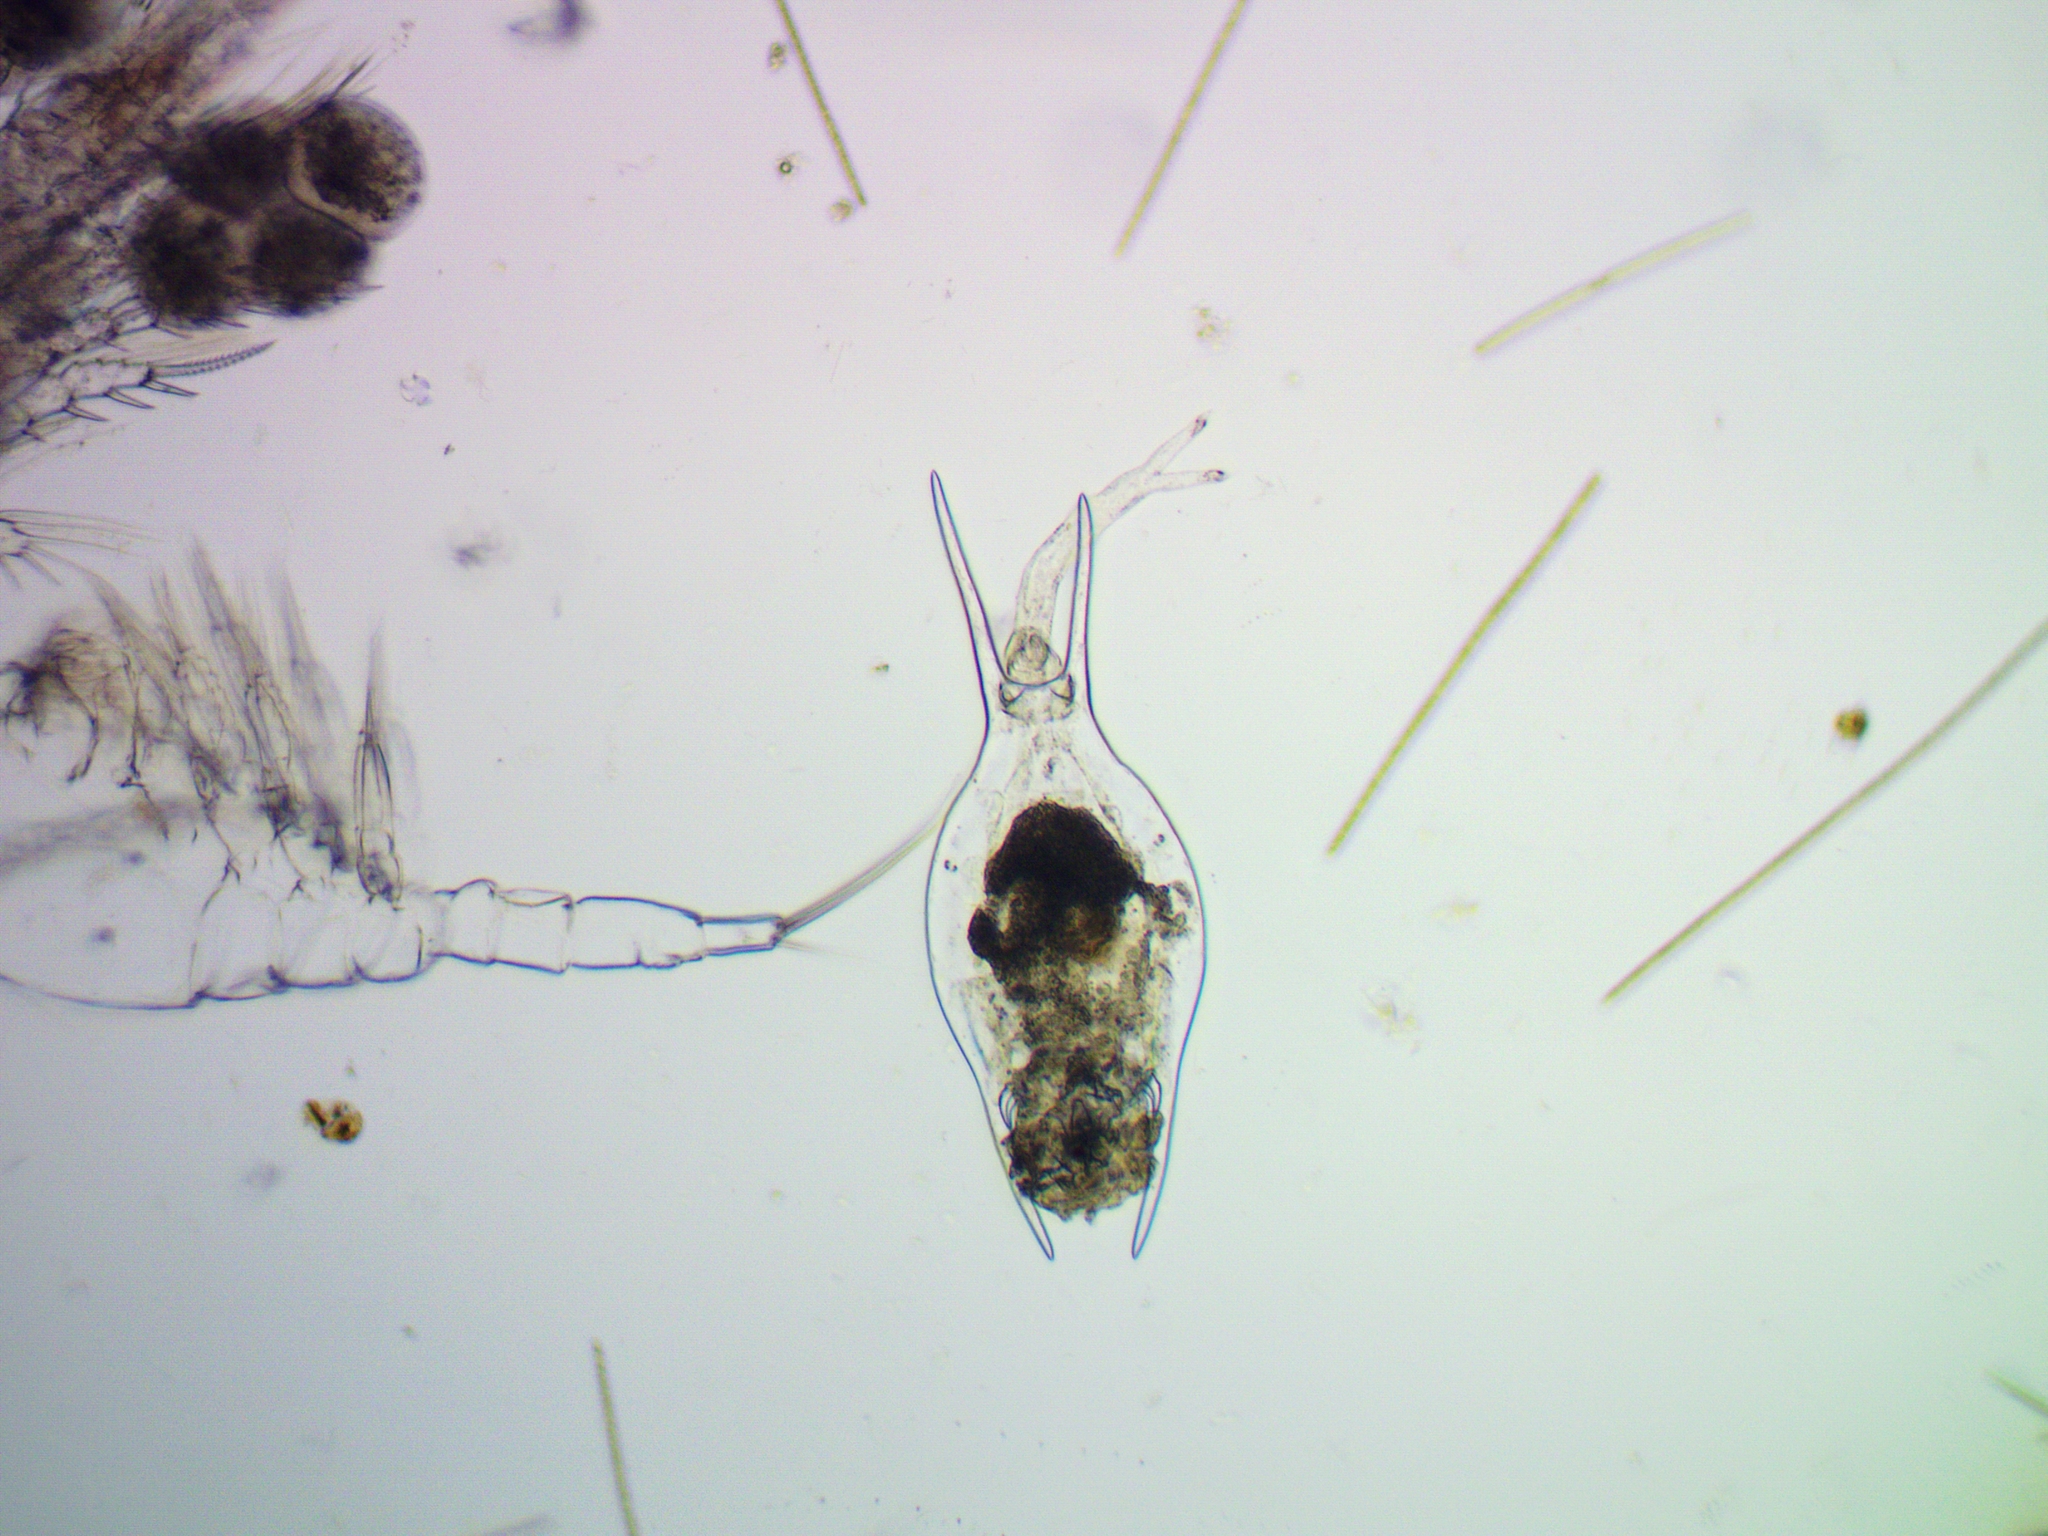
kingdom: Animalia
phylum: Rotifera
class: Eurotatoria
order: Ploima
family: Brachionidae
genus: Brachionus
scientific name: Brachionus diversicornis
